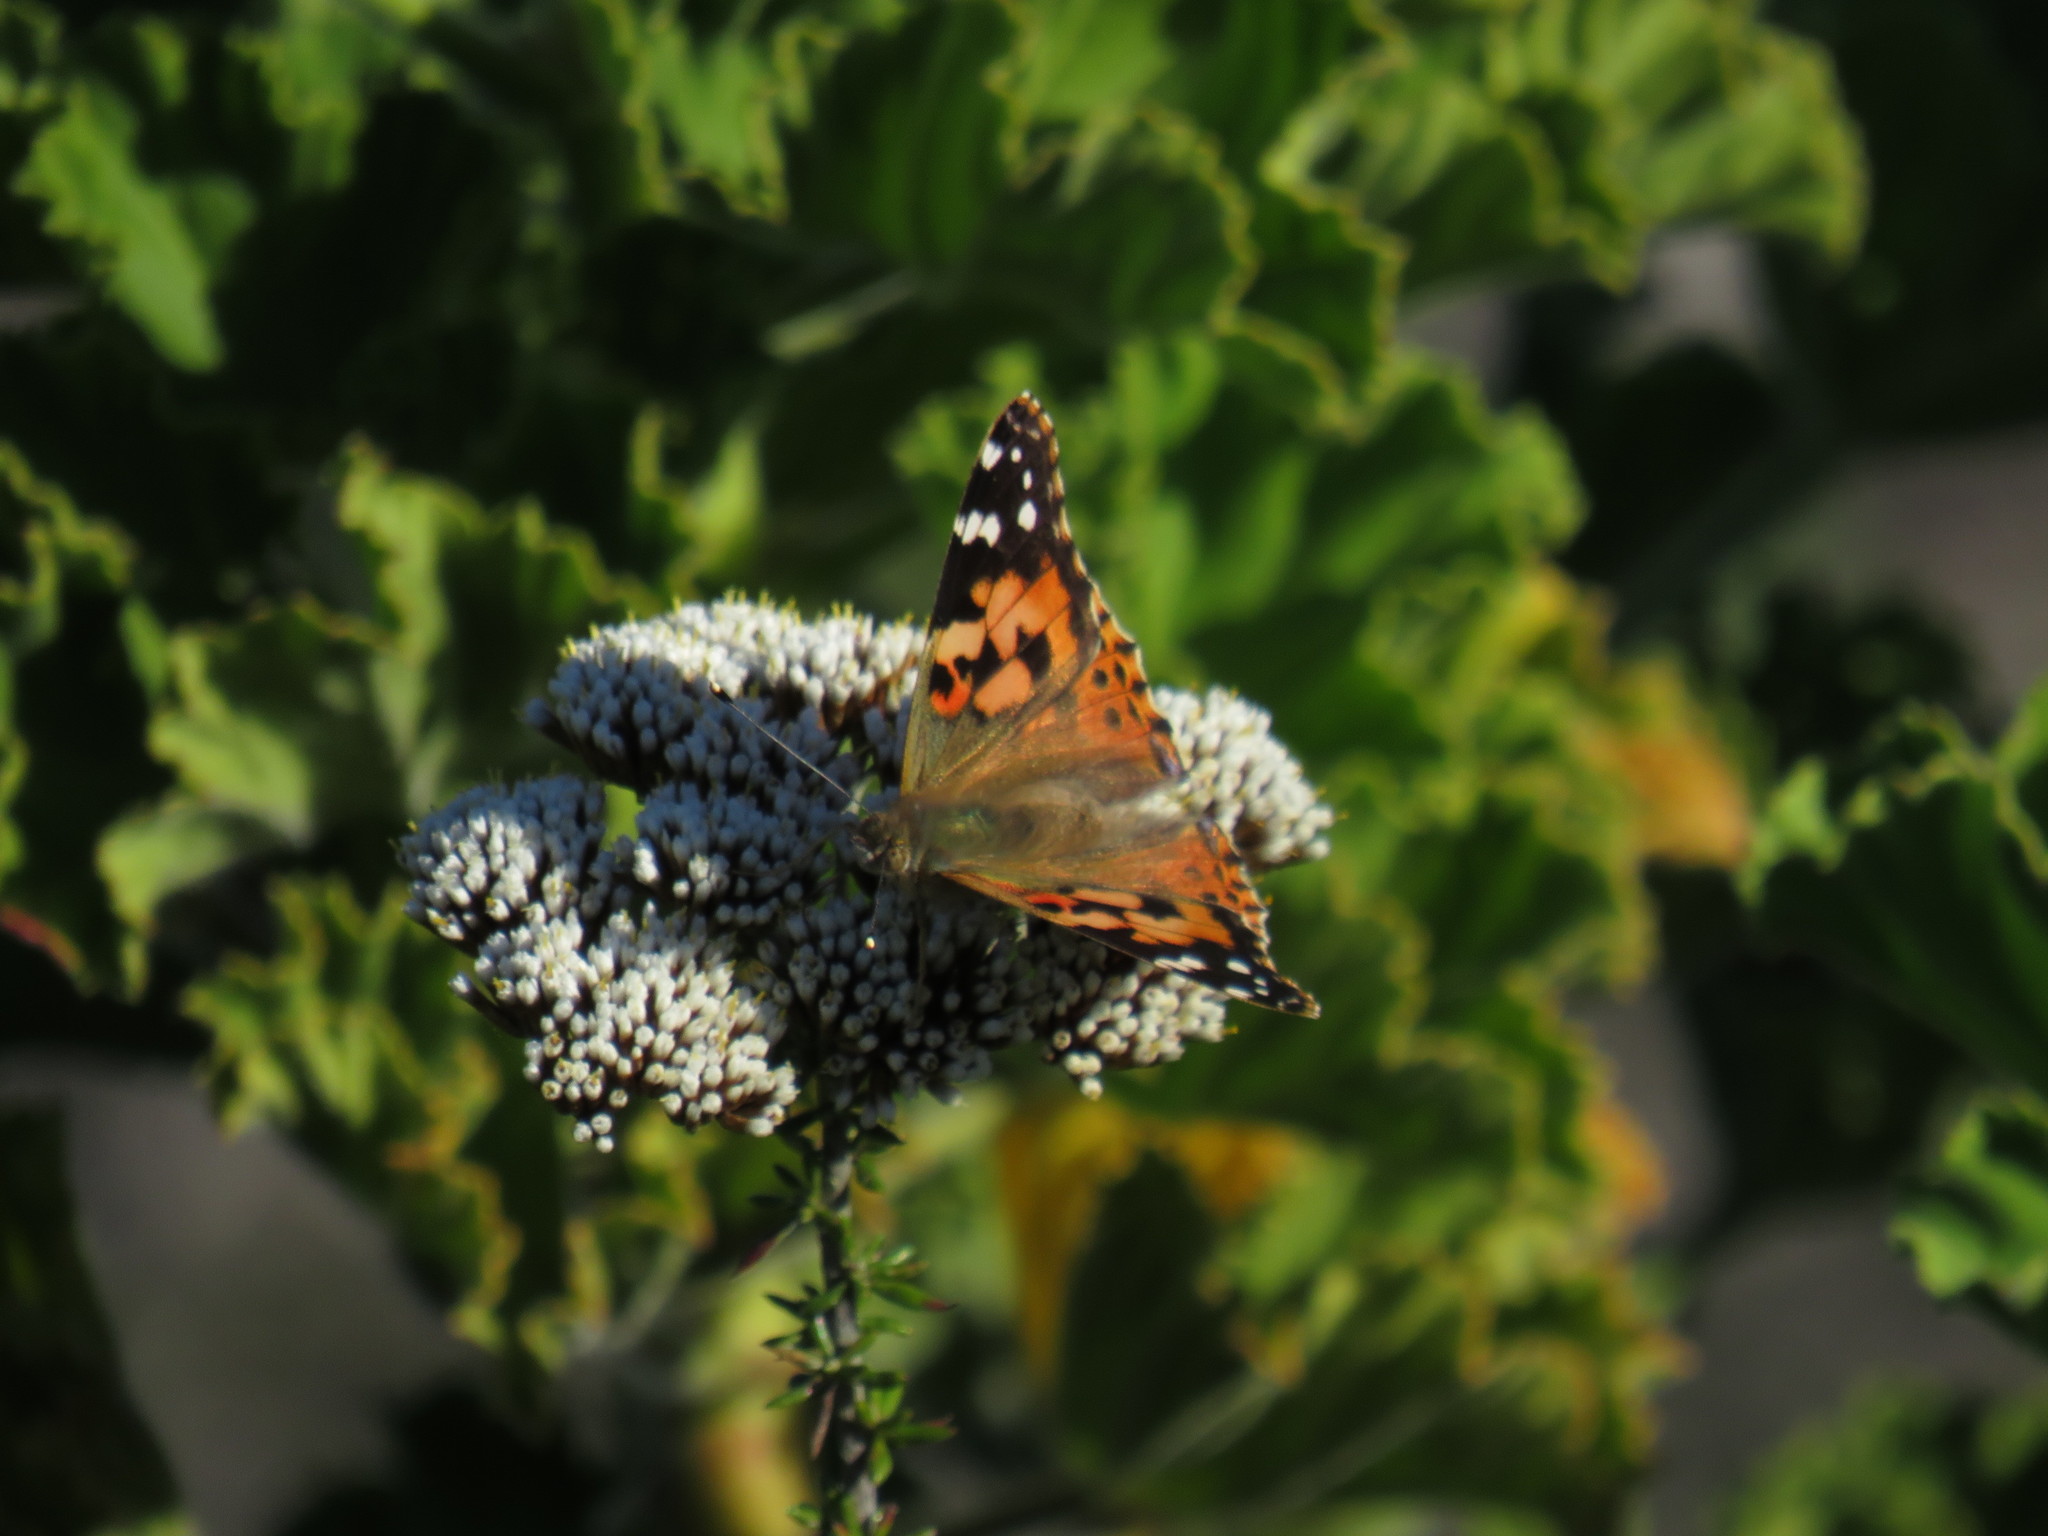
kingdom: Animalia
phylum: Arthropoda
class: Insecta
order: Lepidoptera
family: Nymphalidae
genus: Vanessa
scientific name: Vanessa cardui
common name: Painted lady
